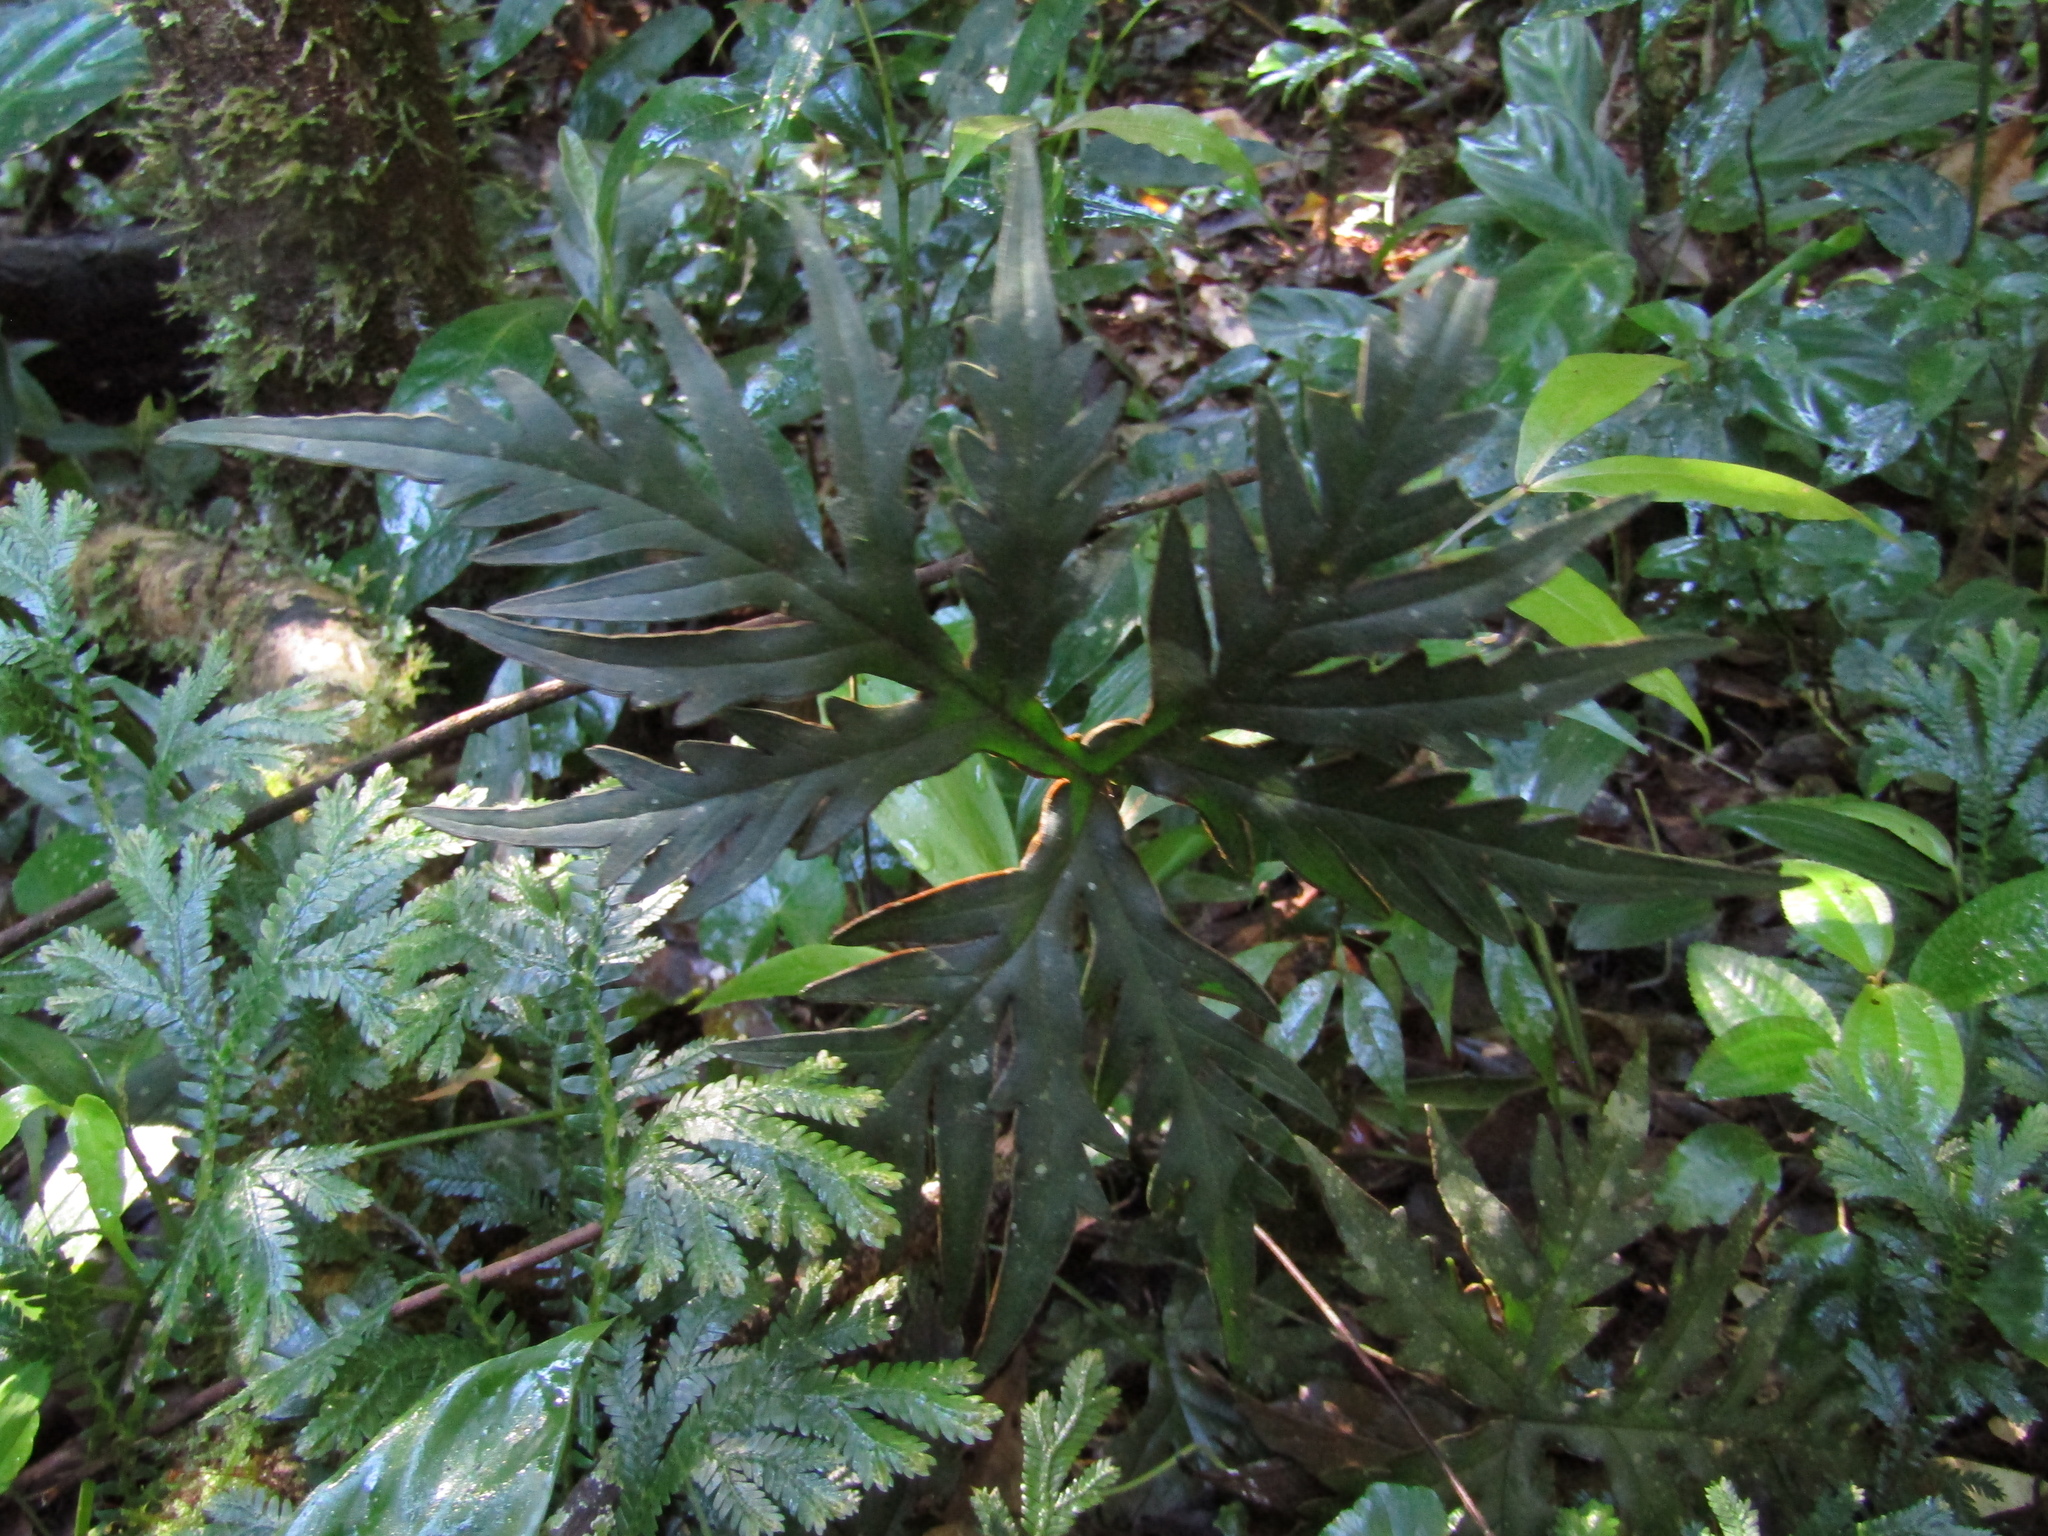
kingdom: Plantae
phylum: Tracheophyta
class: Polypodiopsida
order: Polypodiales
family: Pteridaceae
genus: Doryopteris
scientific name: Doryopteris nobilis
